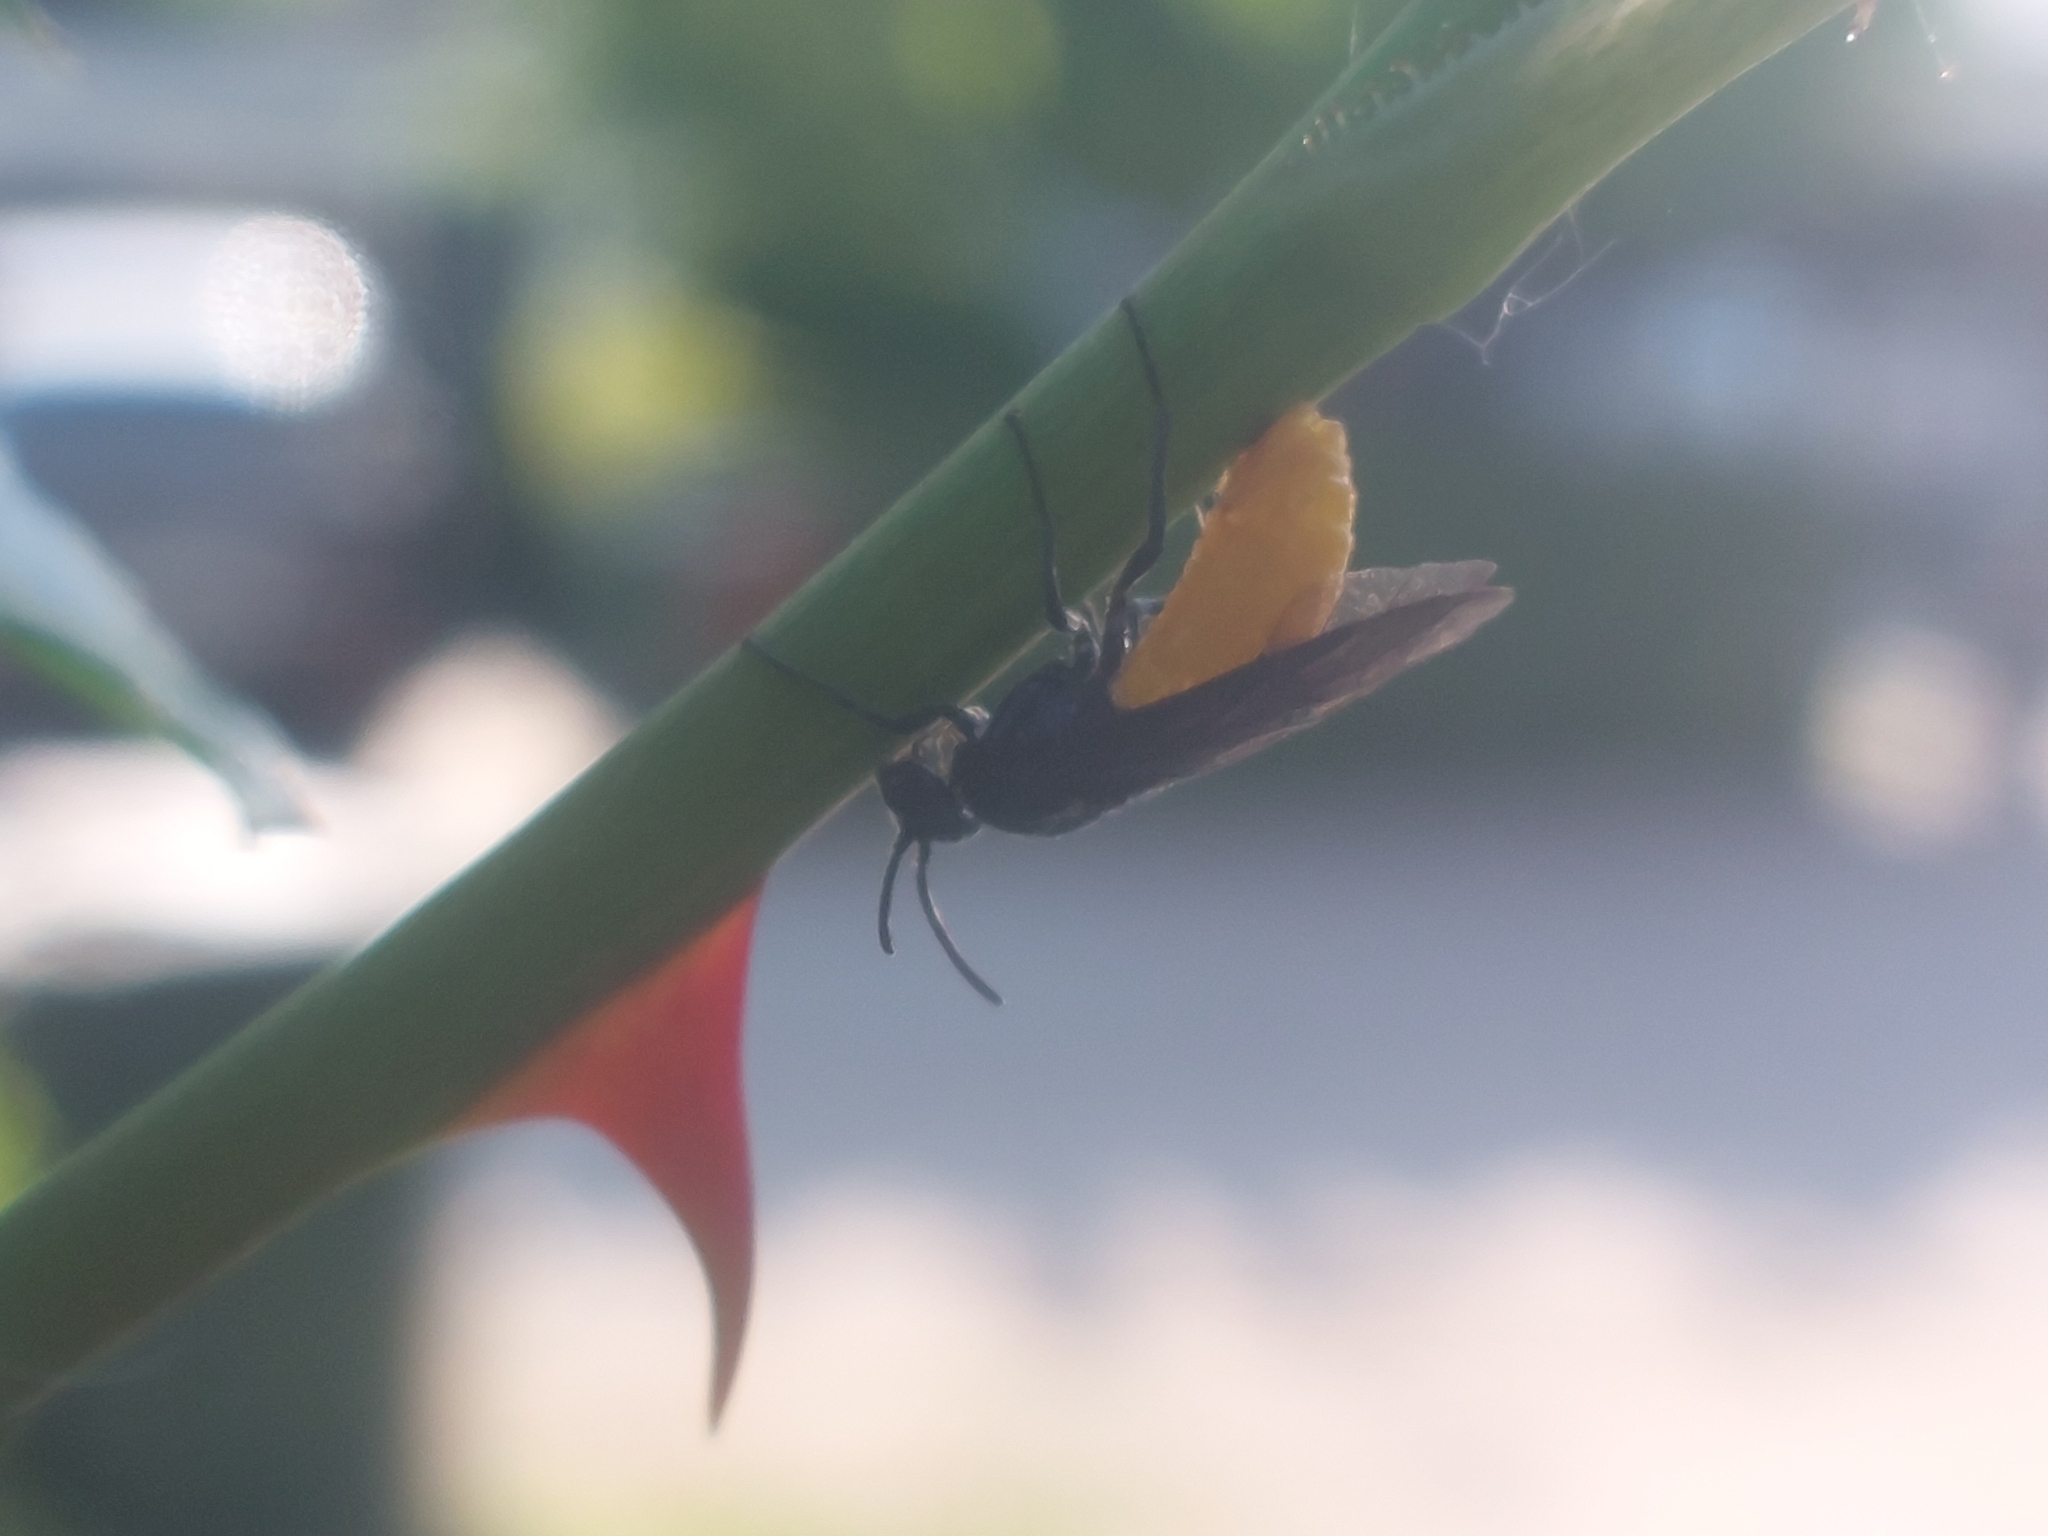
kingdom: Animalia
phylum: Arthropoda
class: Insecta
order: Hymenoptera
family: Argidae
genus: Arge
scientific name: Arge pagana
